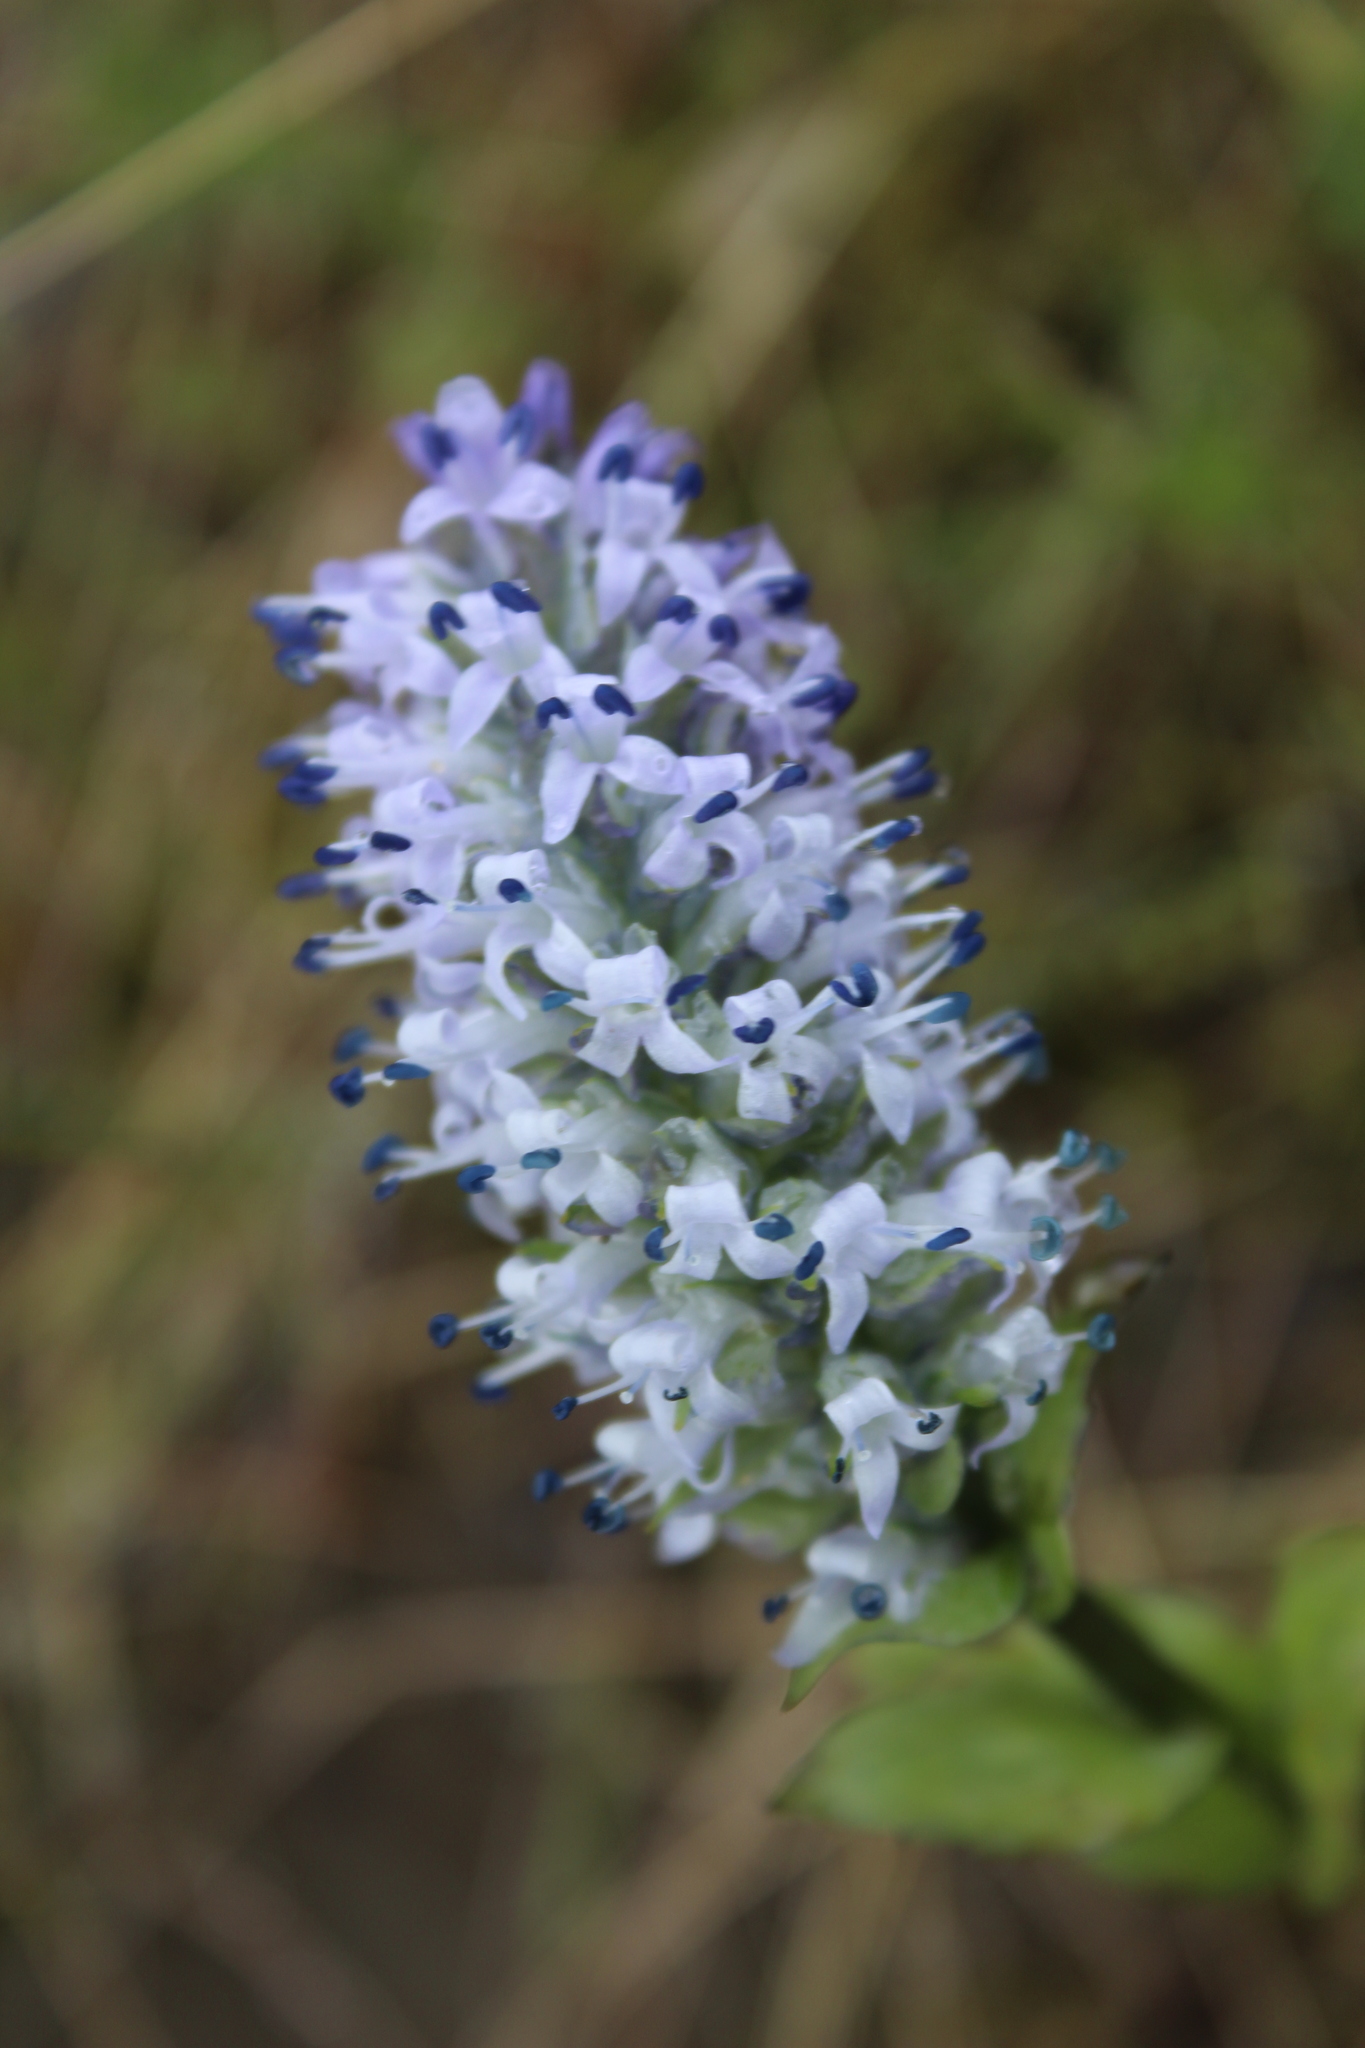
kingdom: Plantae
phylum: Tracheophyta
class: Magnoliopsida
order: Lamiales
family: Plantaginaceae
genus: Lagotis
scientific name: Lagotis glauca
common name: Glaucous weaselsnout
